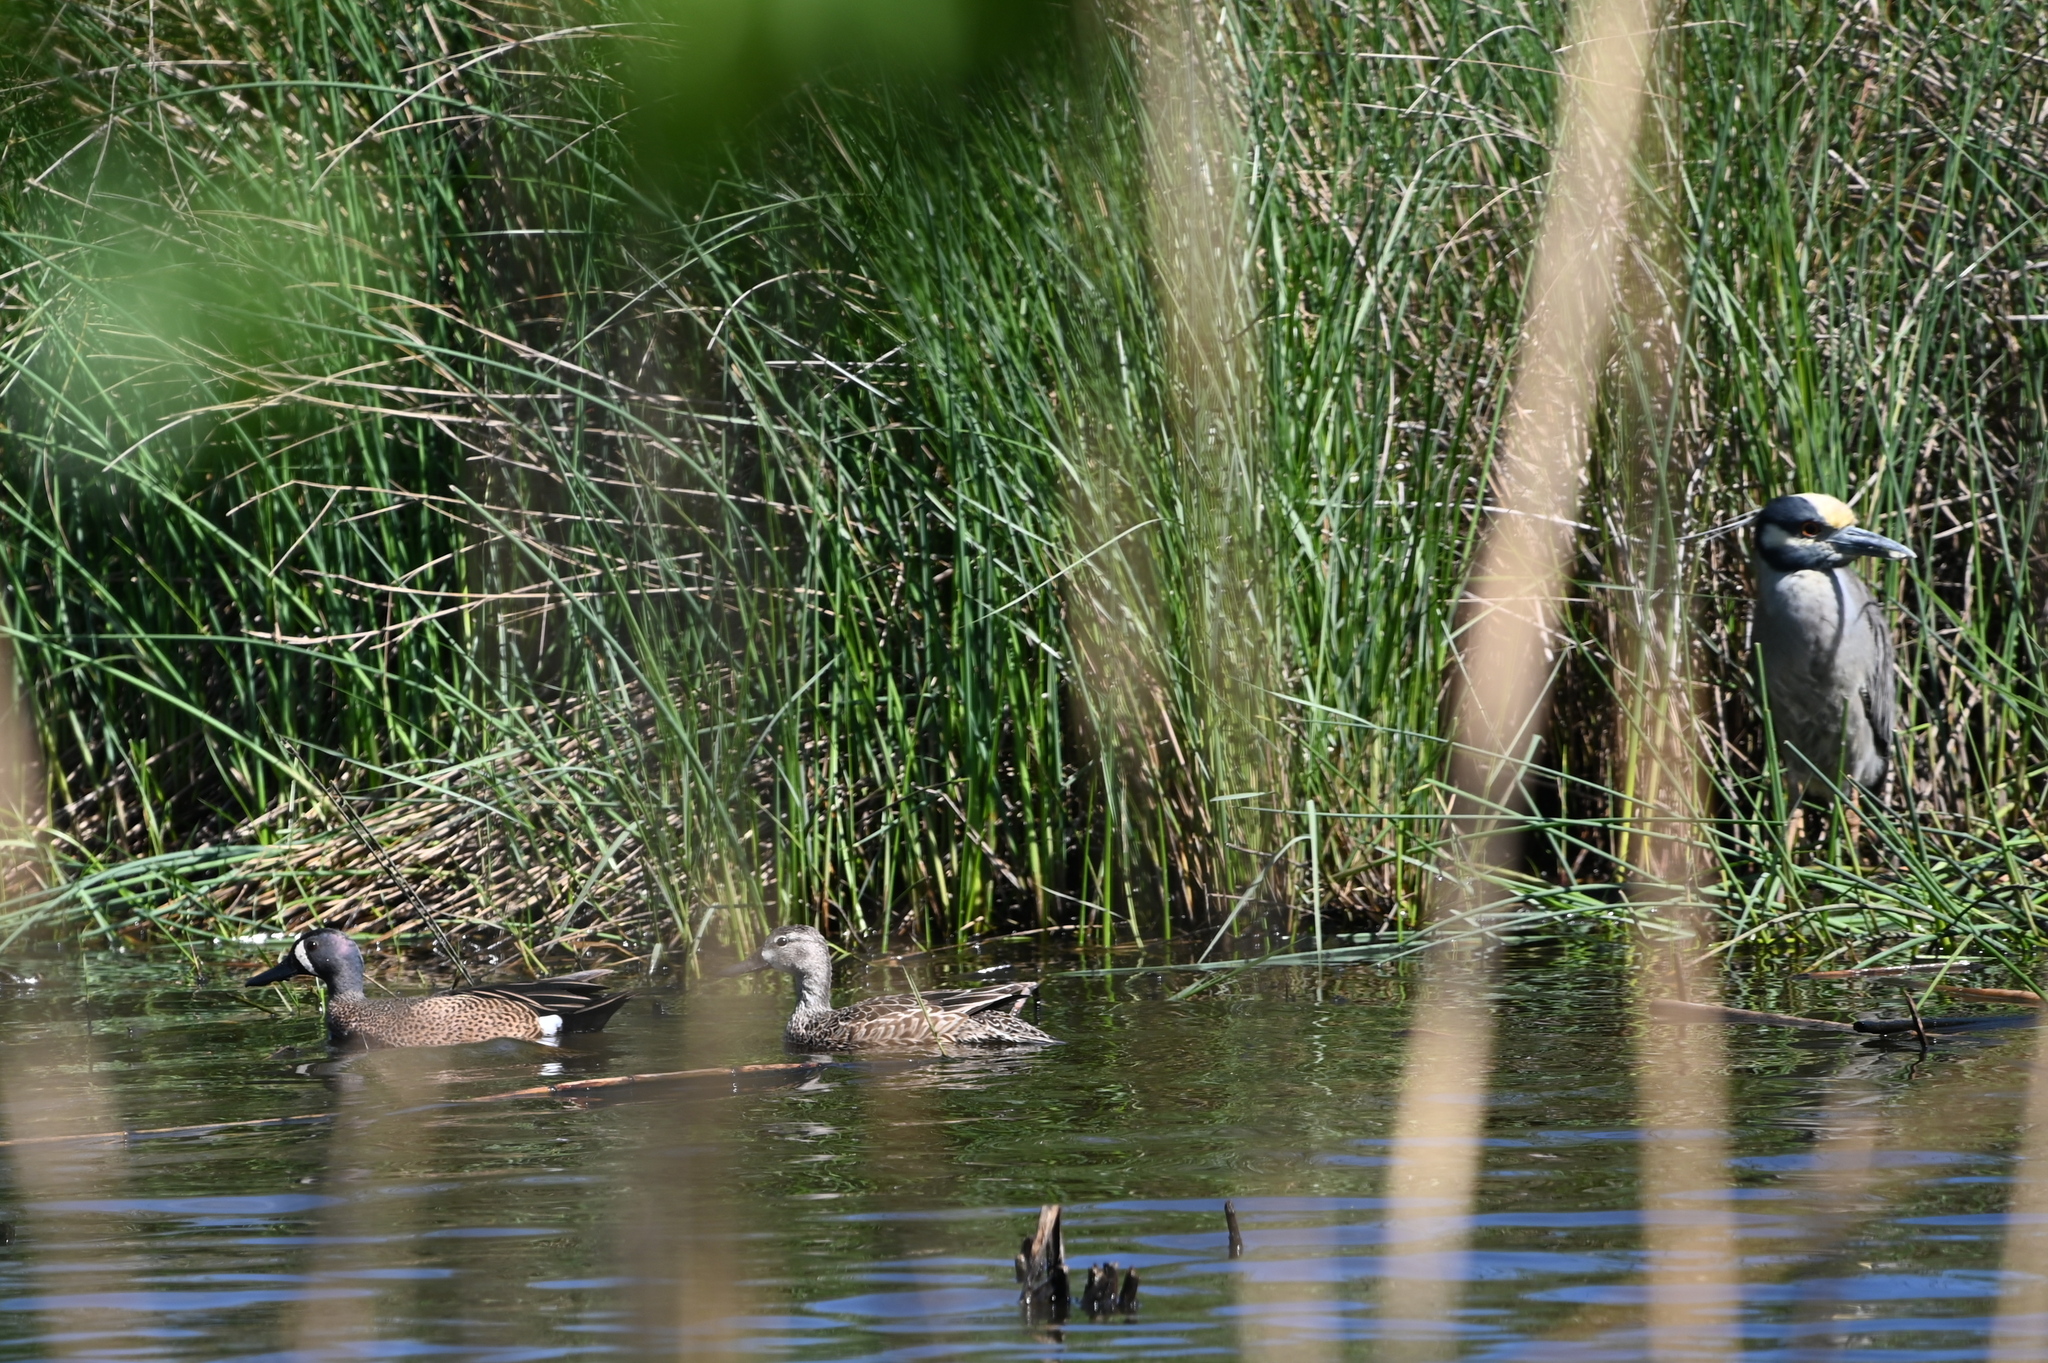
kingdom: Animalia
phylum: Chordata
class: Aves
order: Anseriformes
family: Anatidae
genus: Spatula
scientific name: Spatula discors
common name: Blue-winged teal
